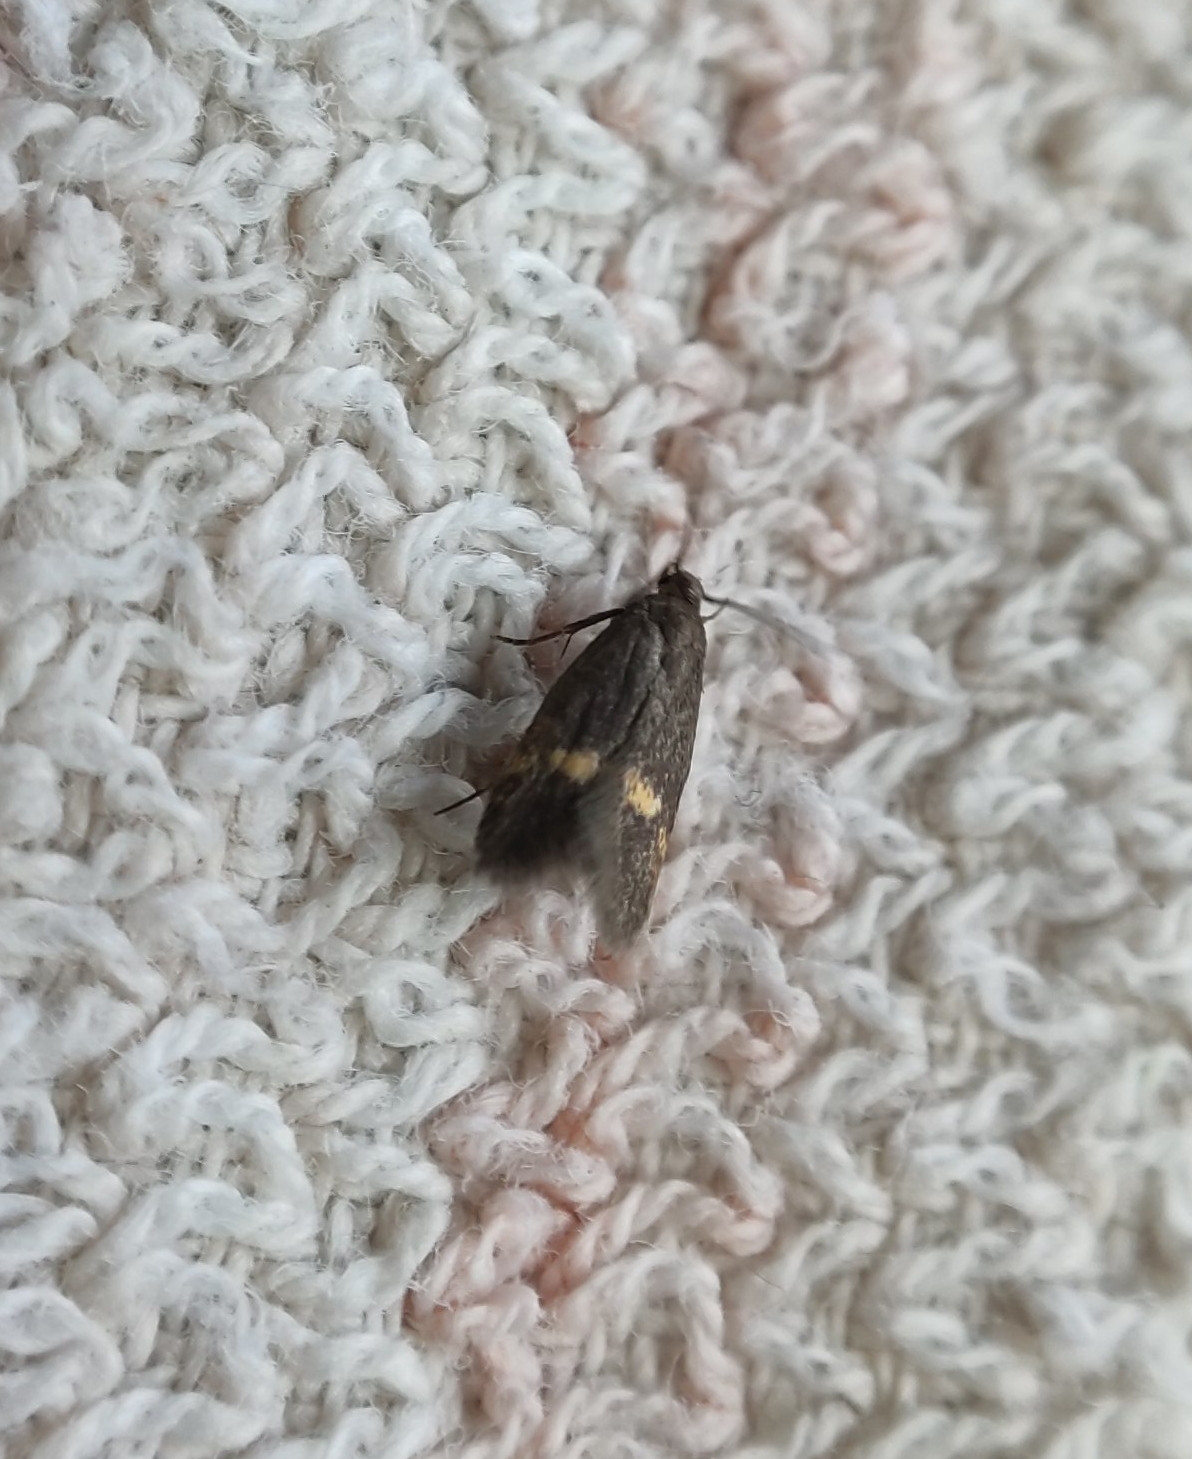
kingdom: Animalia
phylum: Arthropoda
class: Insecta
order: Lepidoptera
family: Oecophoridae
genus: Borkhausenia
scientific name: Borkhausenia minutella
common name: Thatch tubic
